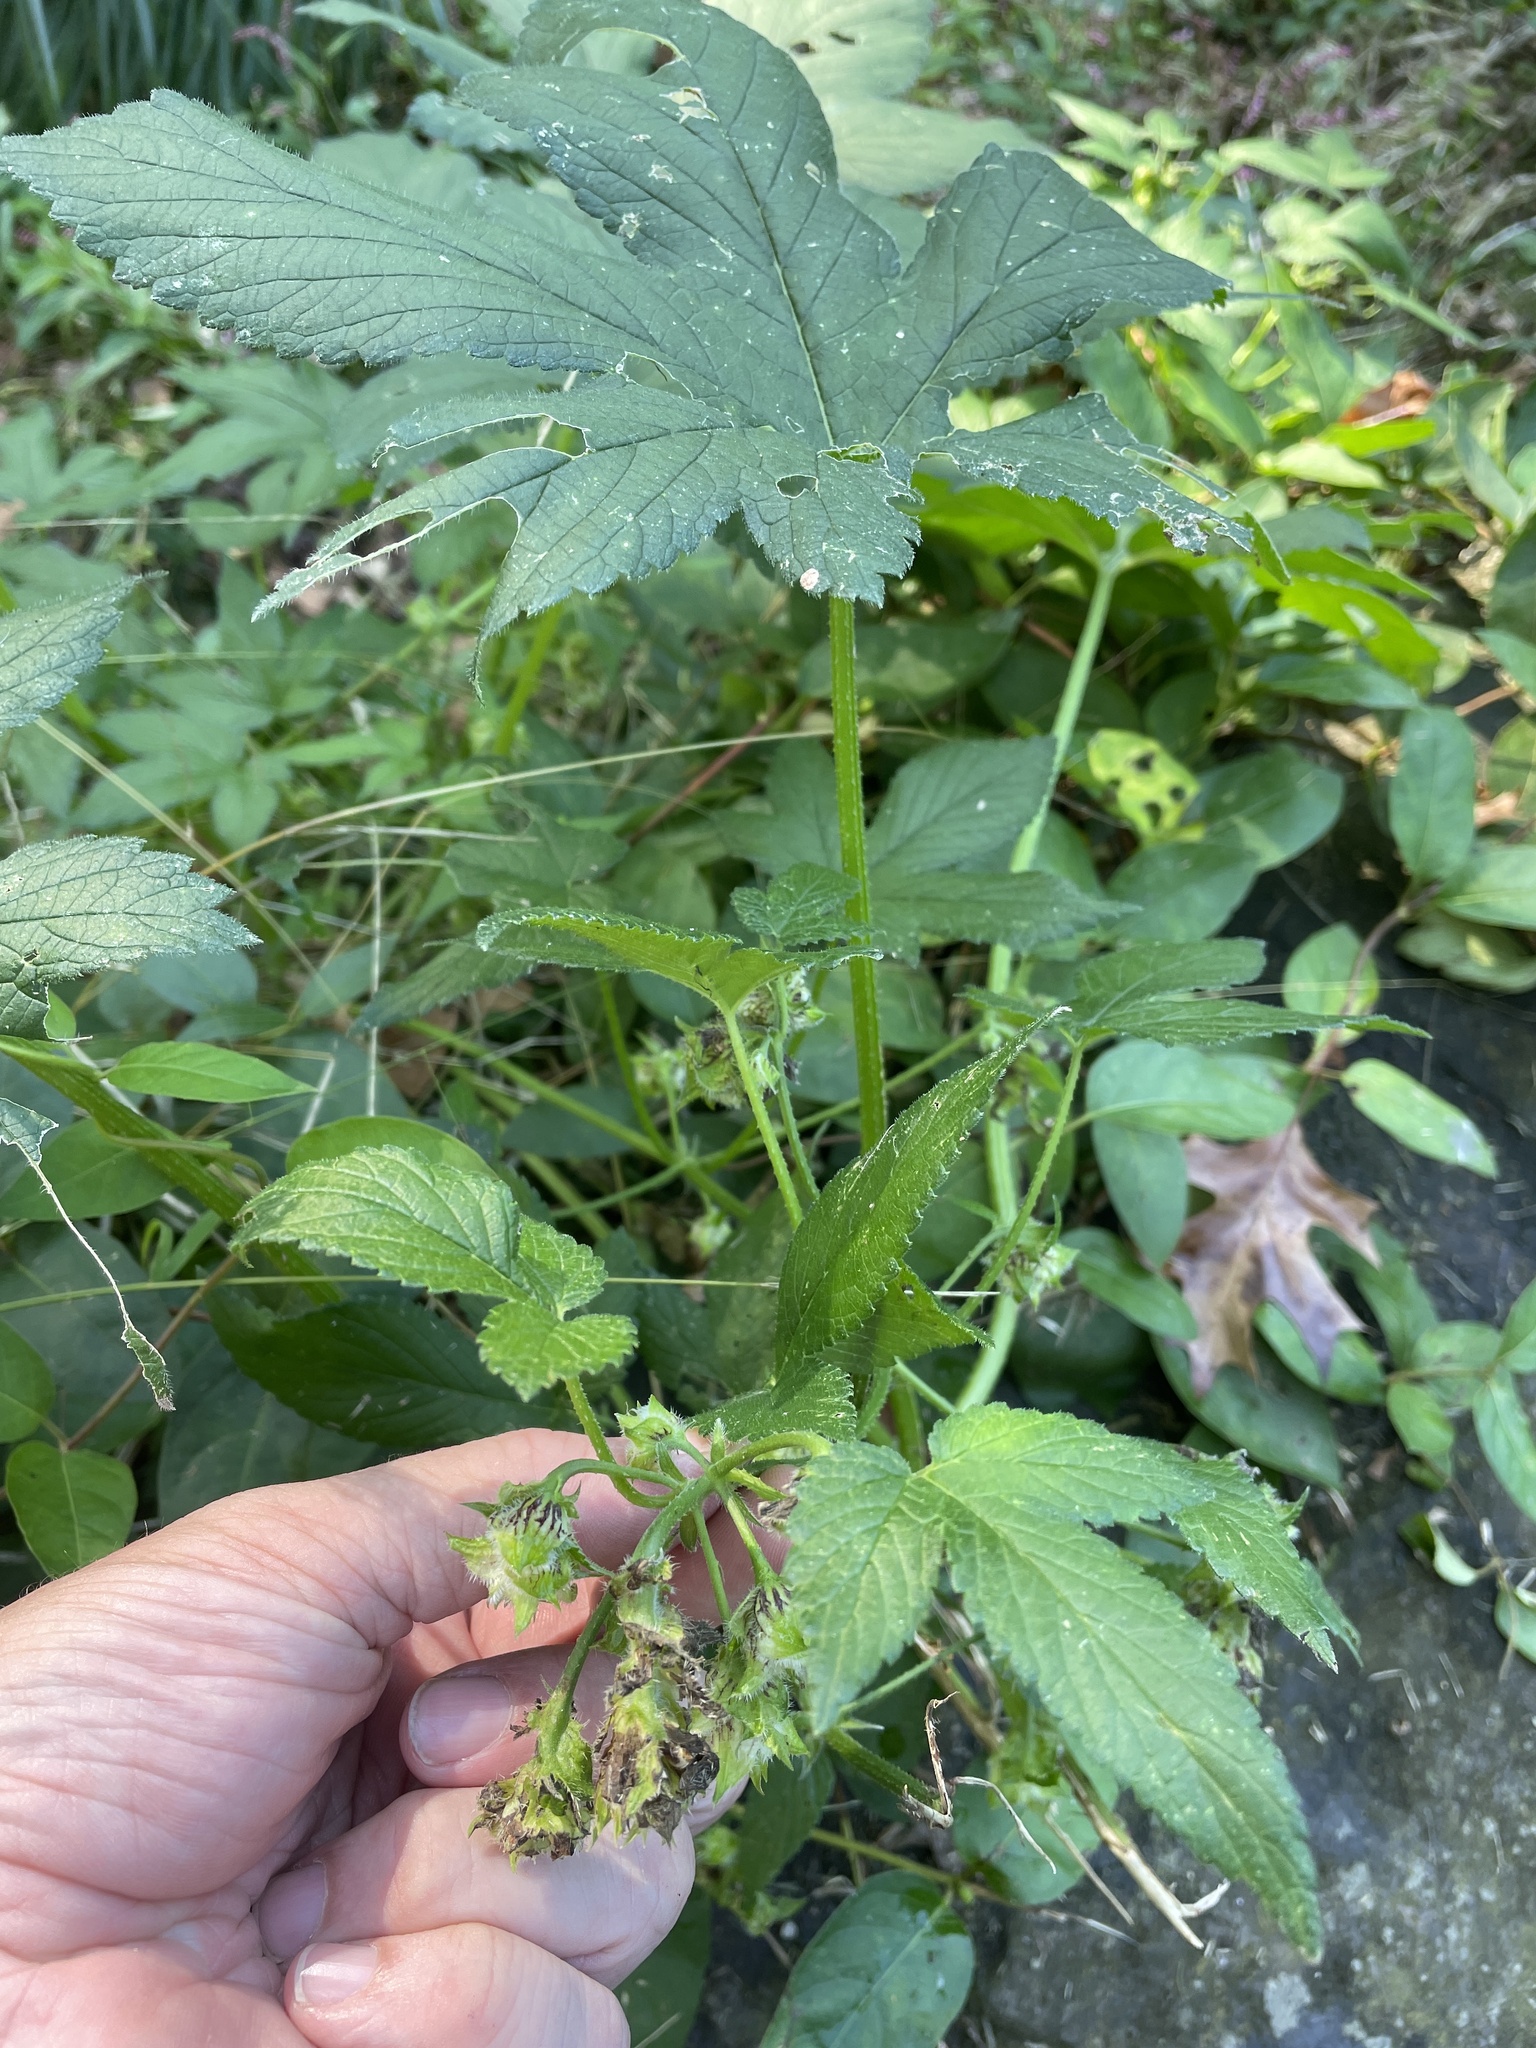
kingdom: Plantae
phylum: Tracheophyta
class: Magnoliopsida
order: Rosales
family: Cannabaceae
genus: Humulus
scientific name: Humulus scandens
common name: Japanese hop
